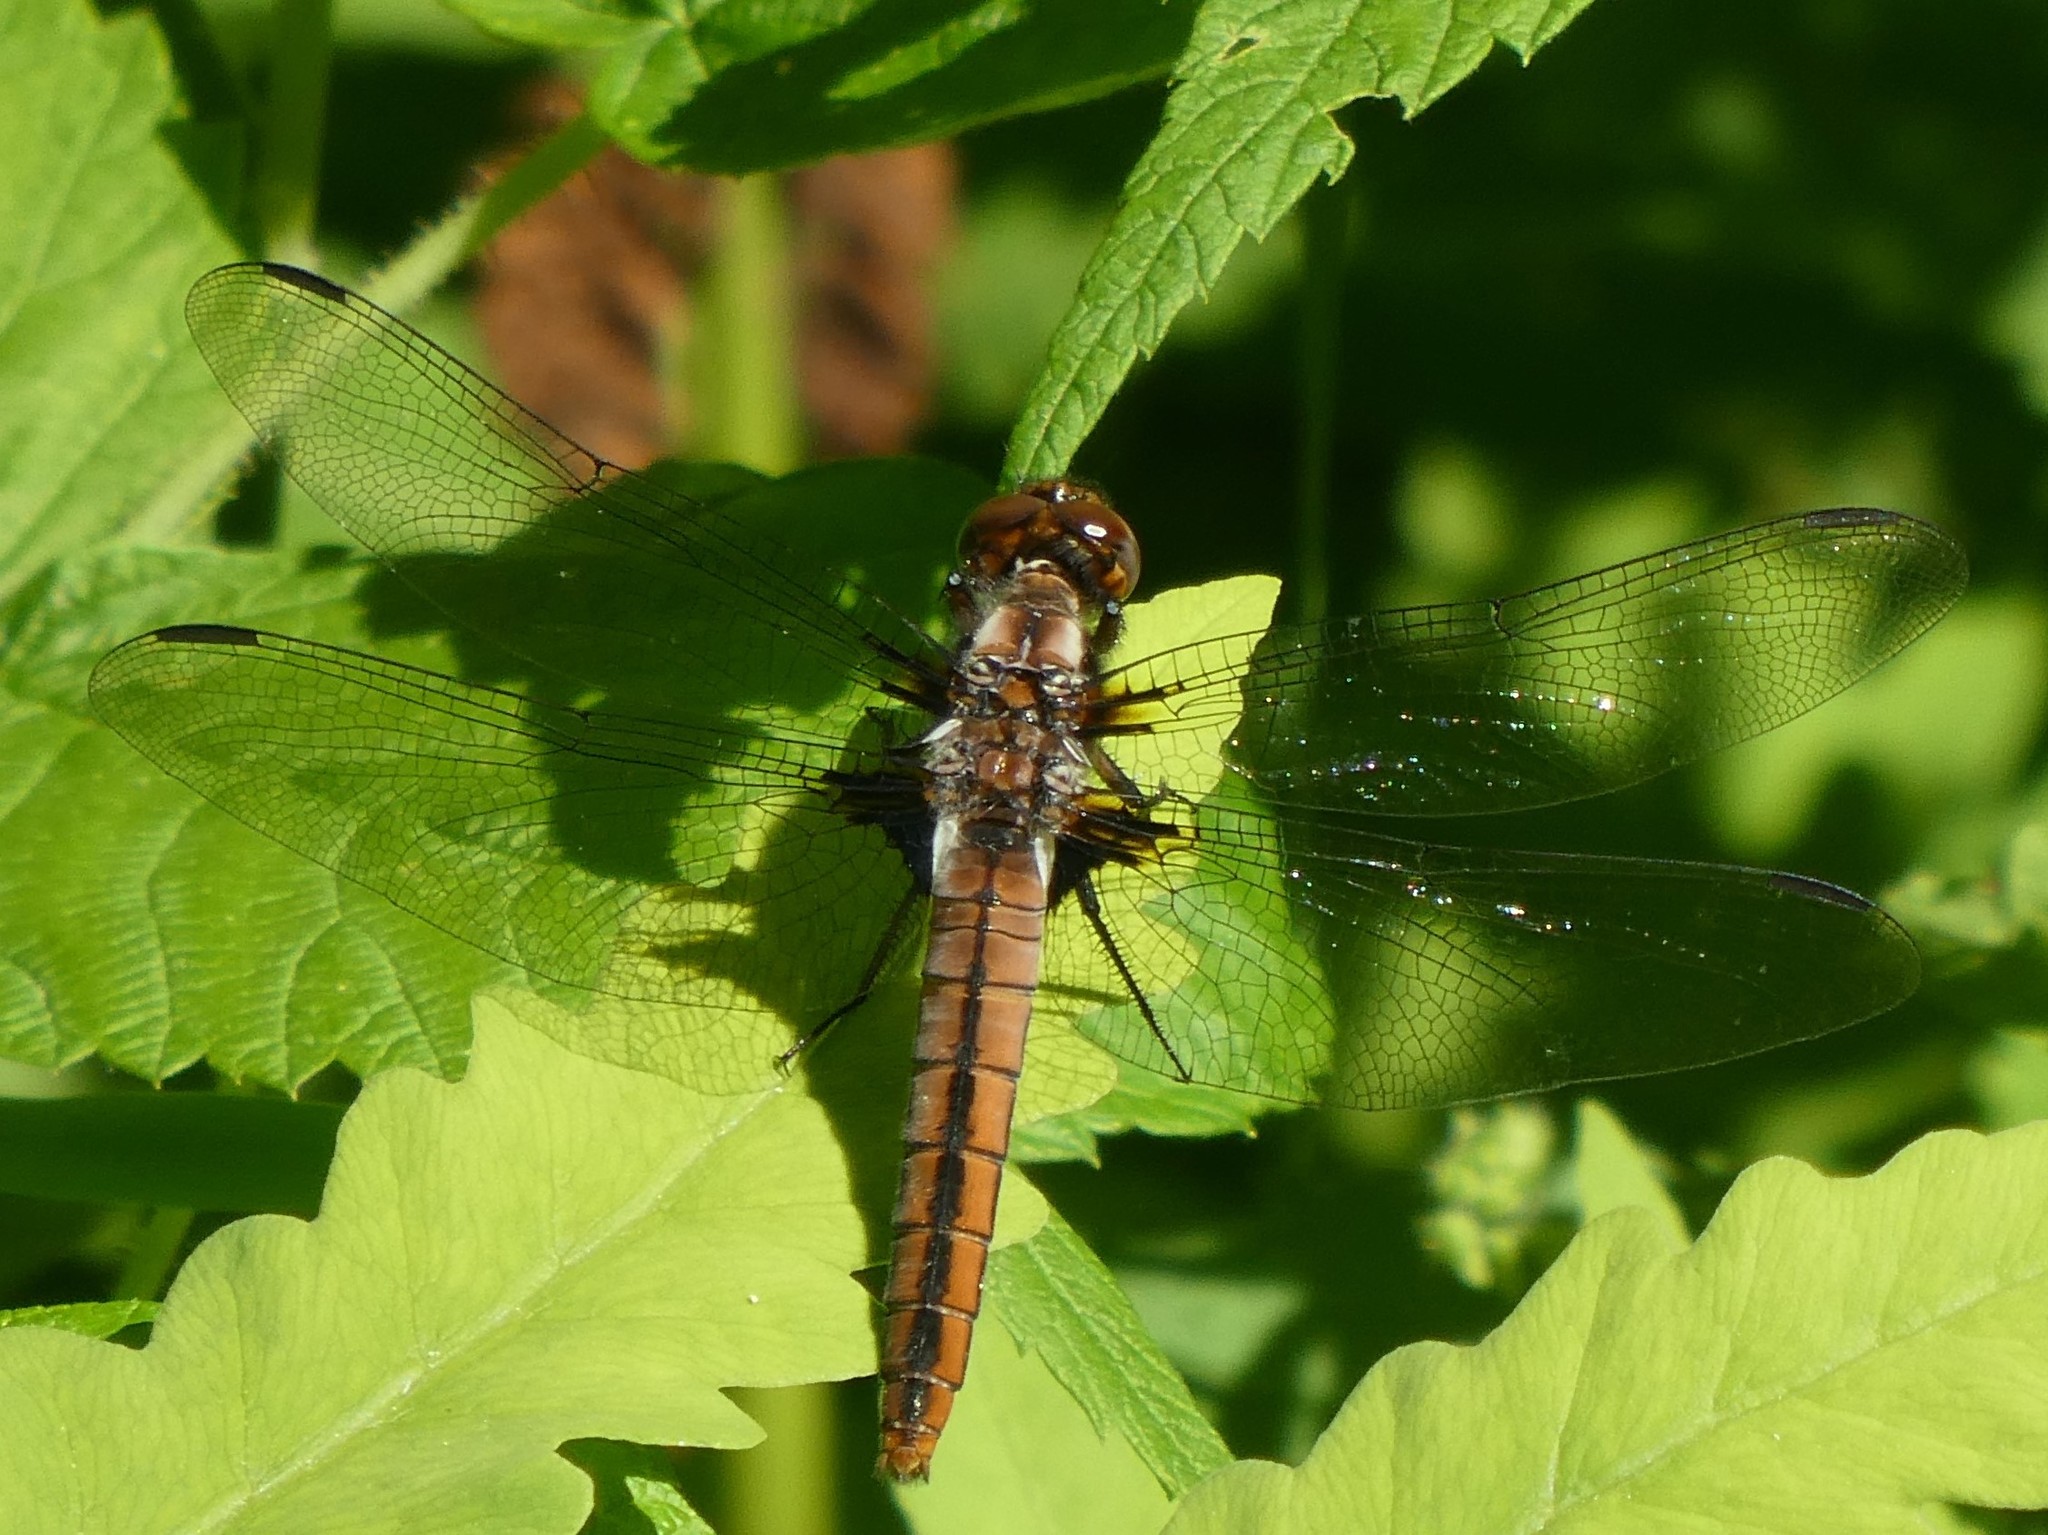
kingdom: Animalia
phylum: Arthropoda
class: Insecta
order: Odonata
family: Libellulidae
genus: Ladona
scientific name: Ladona julia
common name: Chalk-fronted corporal
